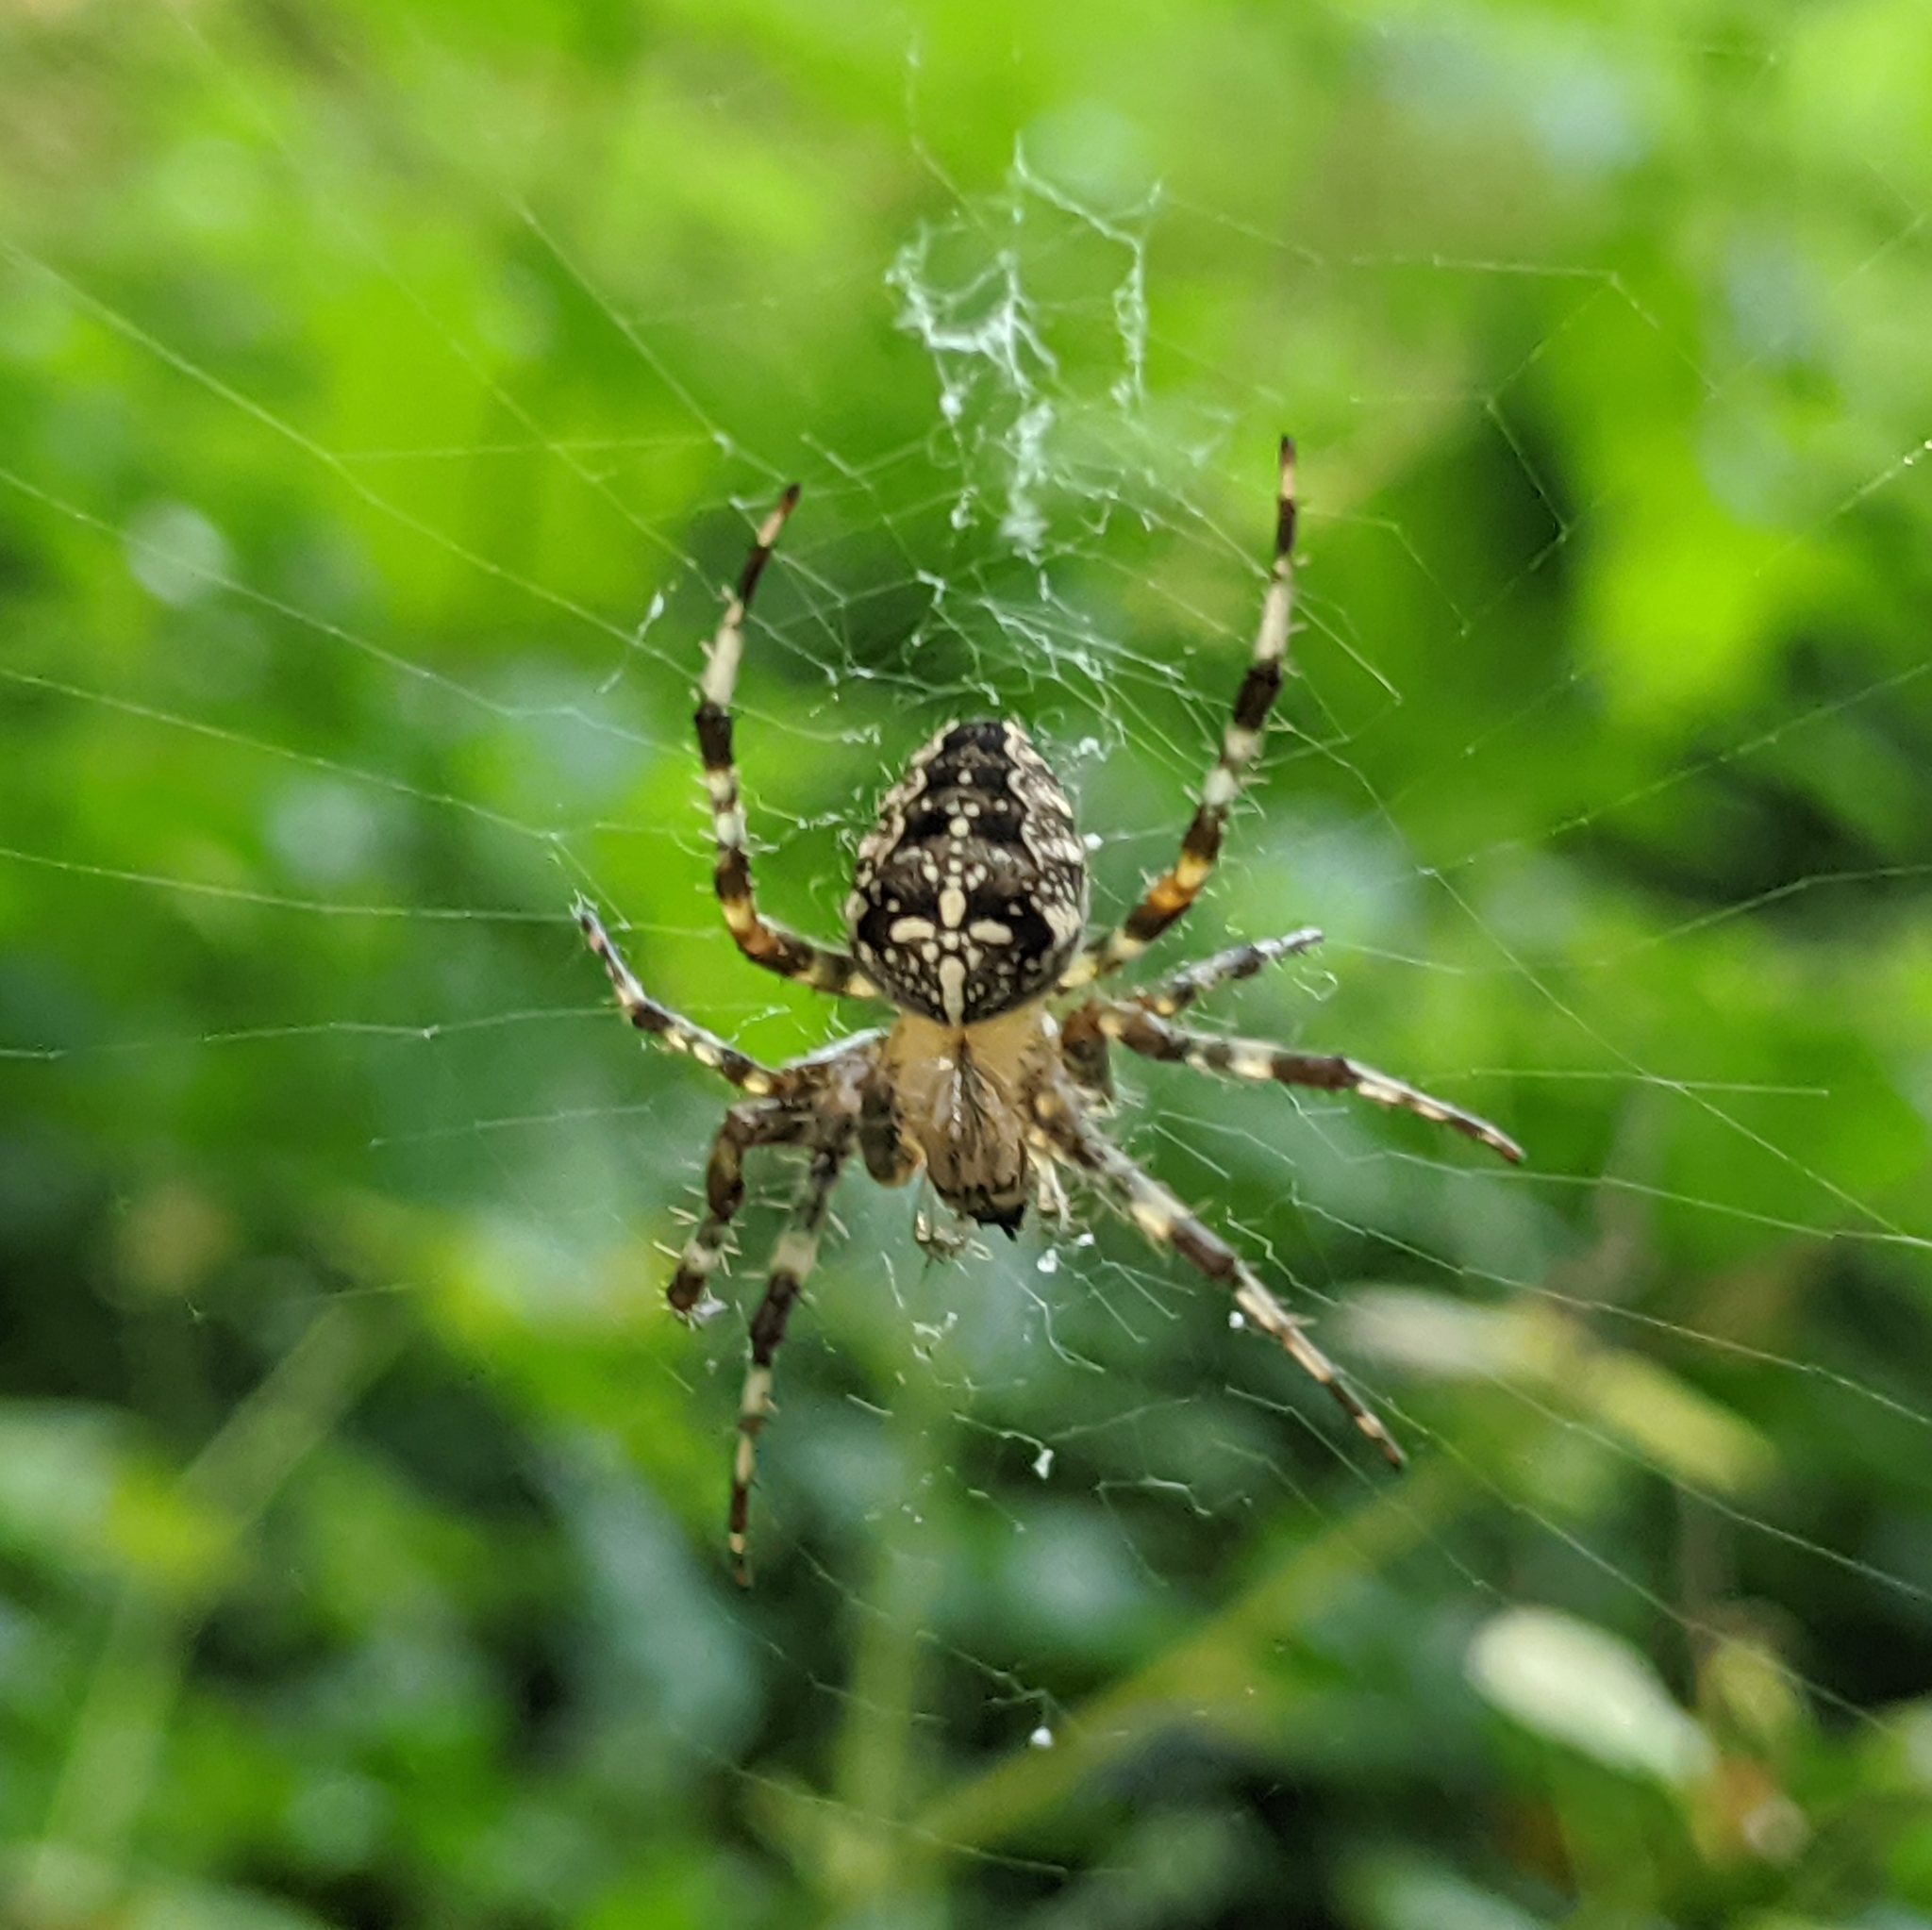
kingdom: Animalia
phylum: Arthropoda
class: Arachnida
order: Araneae
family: Araneidae
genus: Araneus
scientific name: Araneus diadematus
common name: Cross orbweaver
